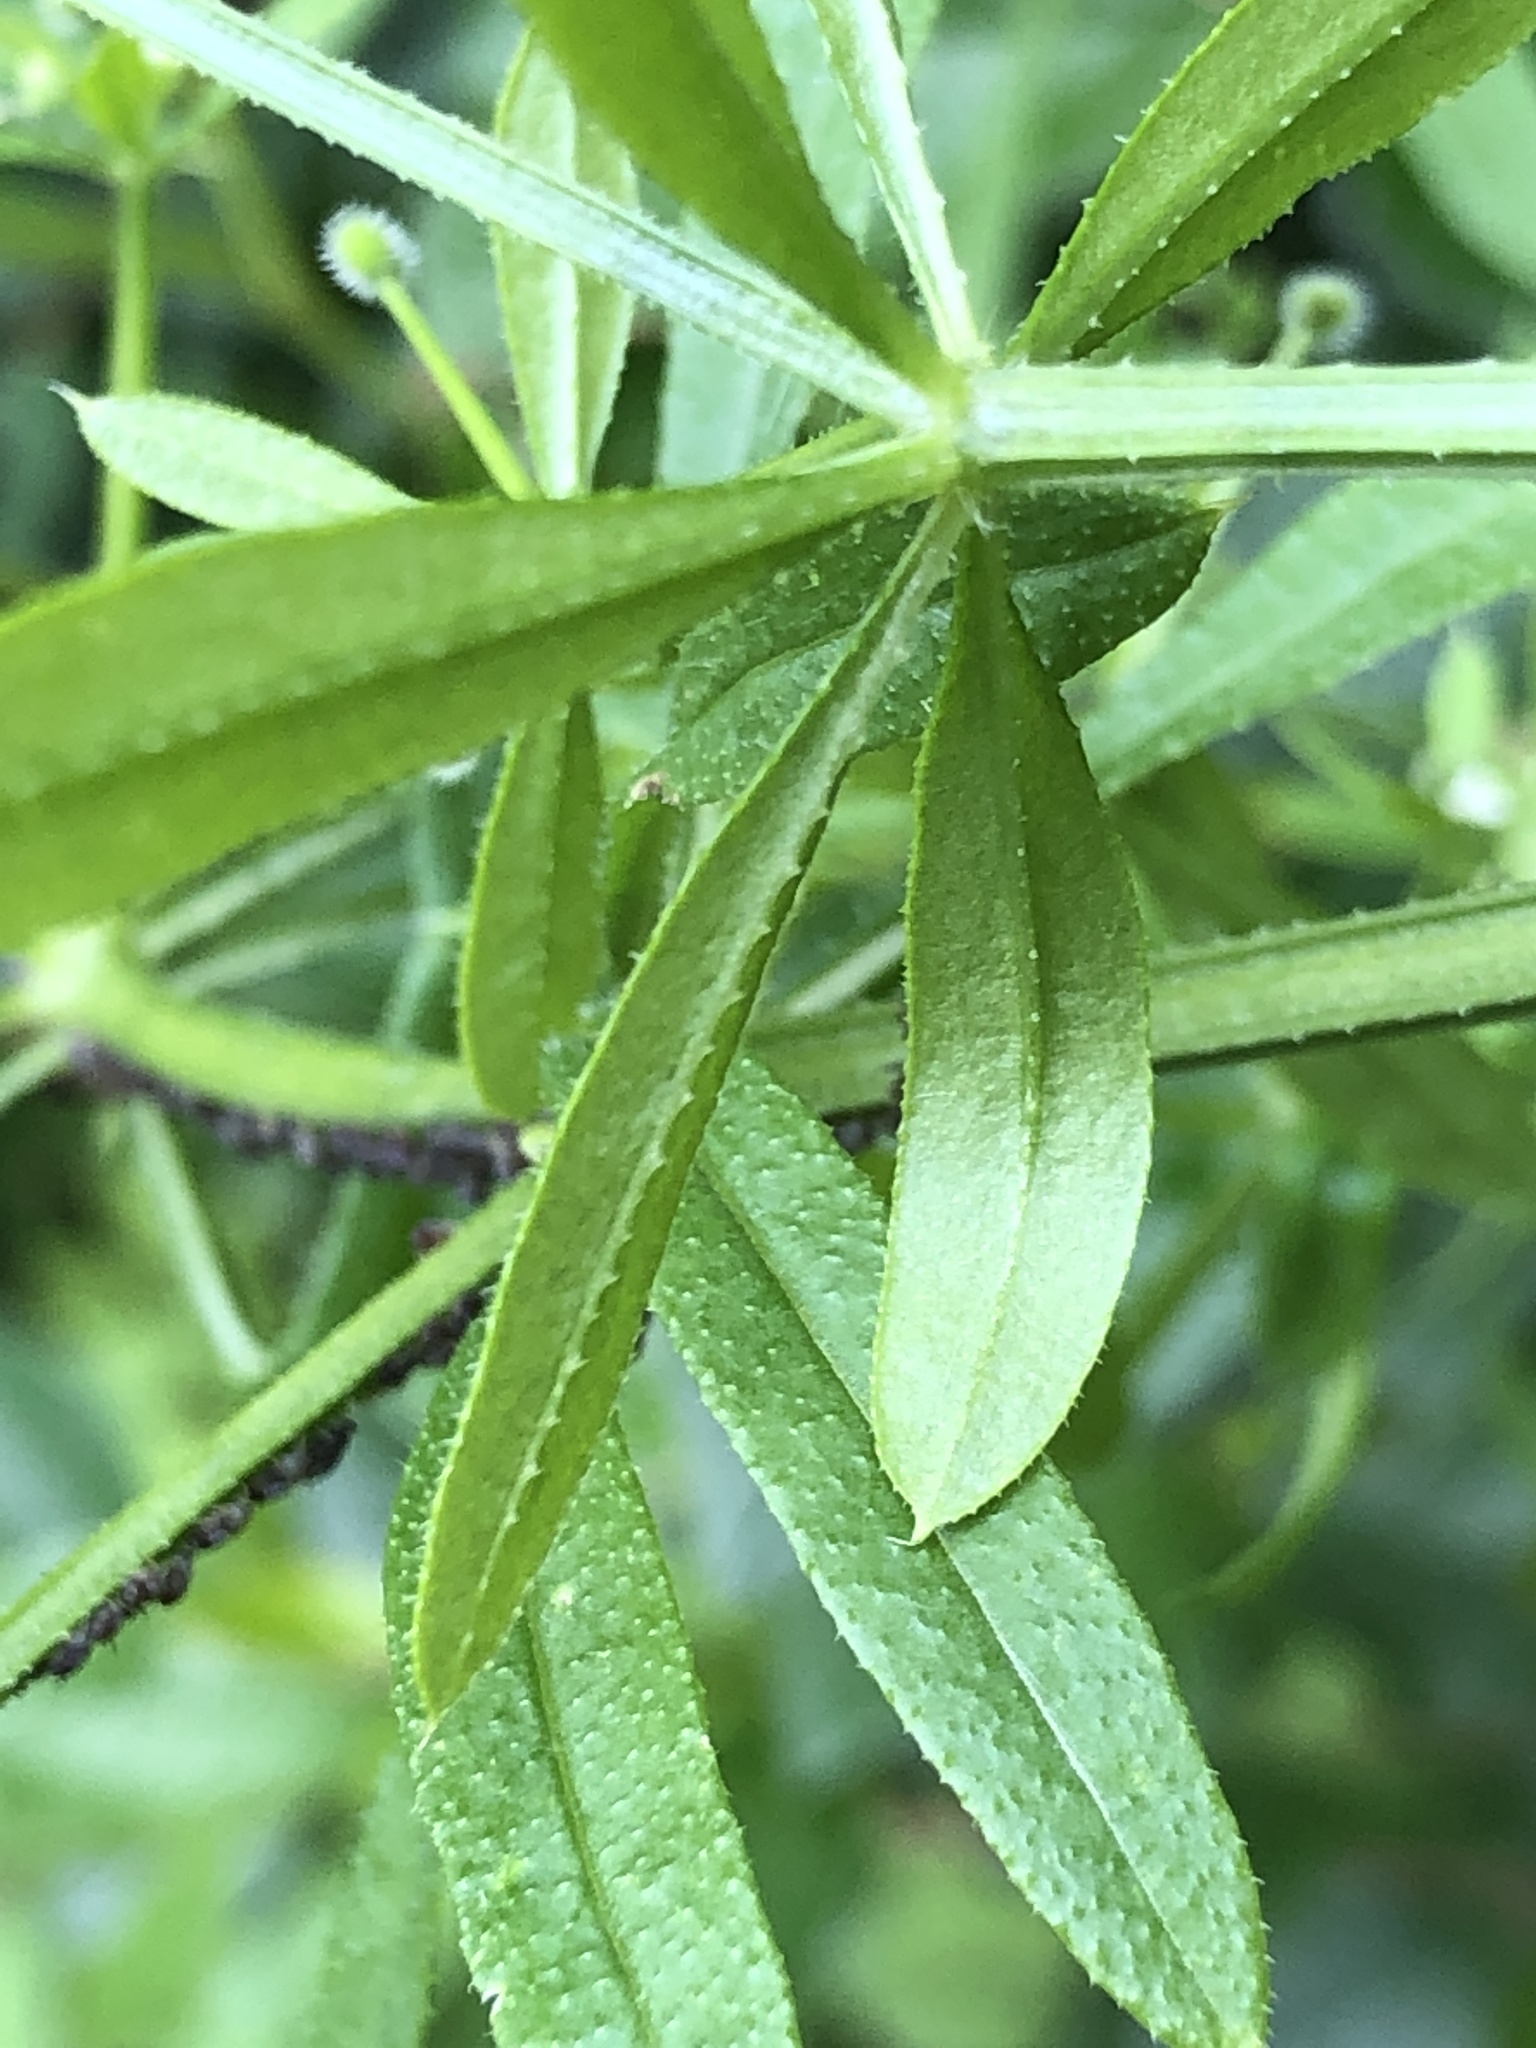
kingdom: Plantae
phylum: Tracheophyta
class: Magnoliopsida
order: Gentianales
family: Rubiaceae
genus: Galium
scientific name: Galium aparine
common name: Cleavers
